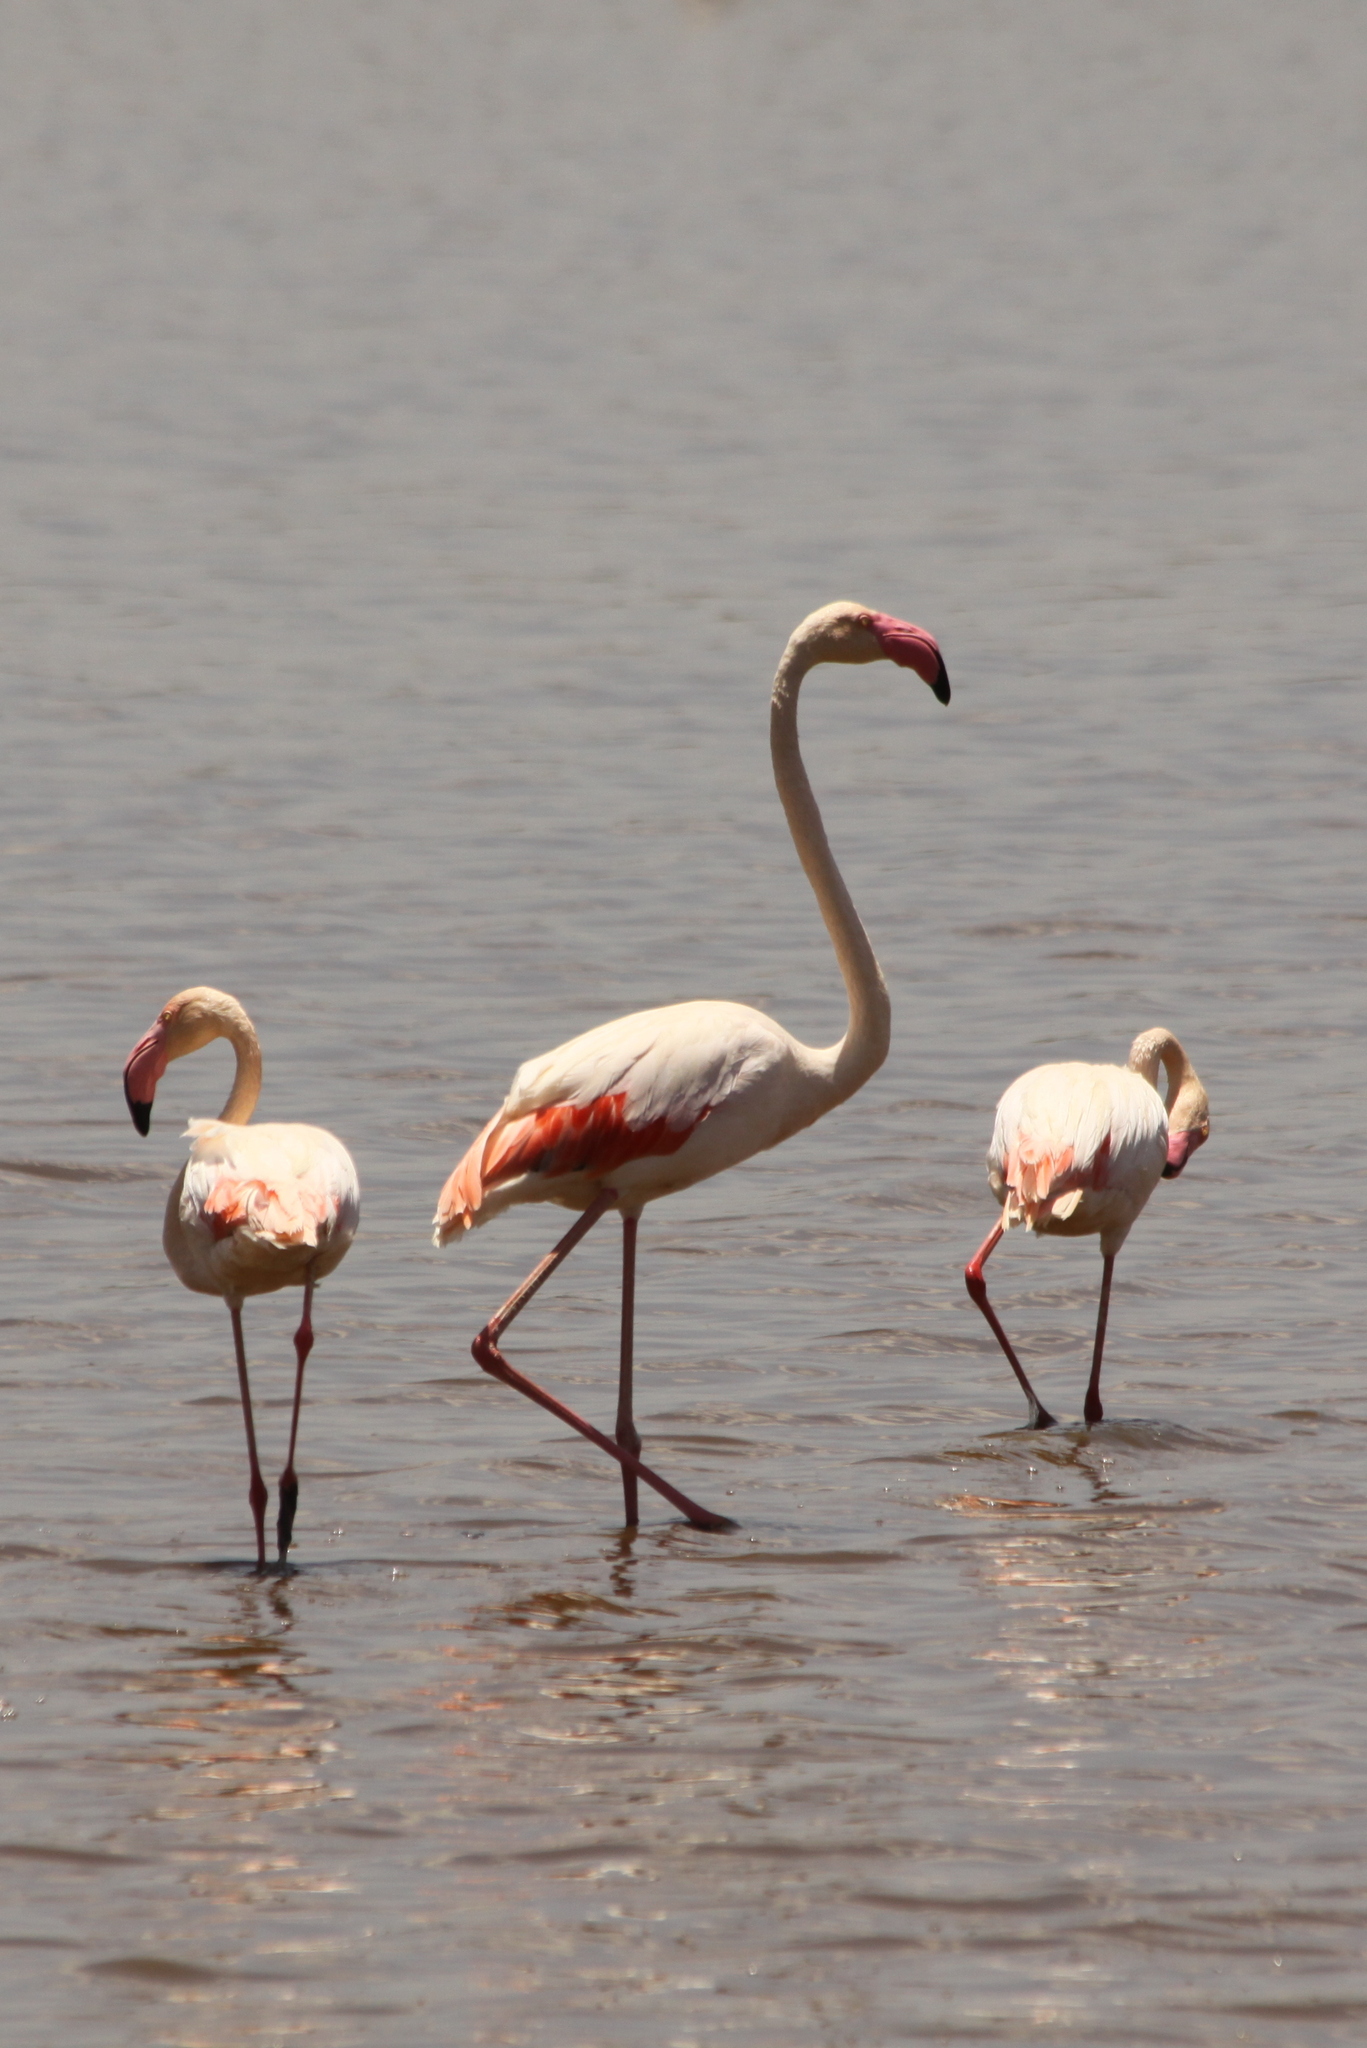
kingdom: Animalia
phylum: Chordata
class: Aves
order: Phoenicopteriformes
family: Phoenicopteridae
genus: Phoenicopterus
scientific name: Phoenicopterus roseus
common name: Greater flamingo
